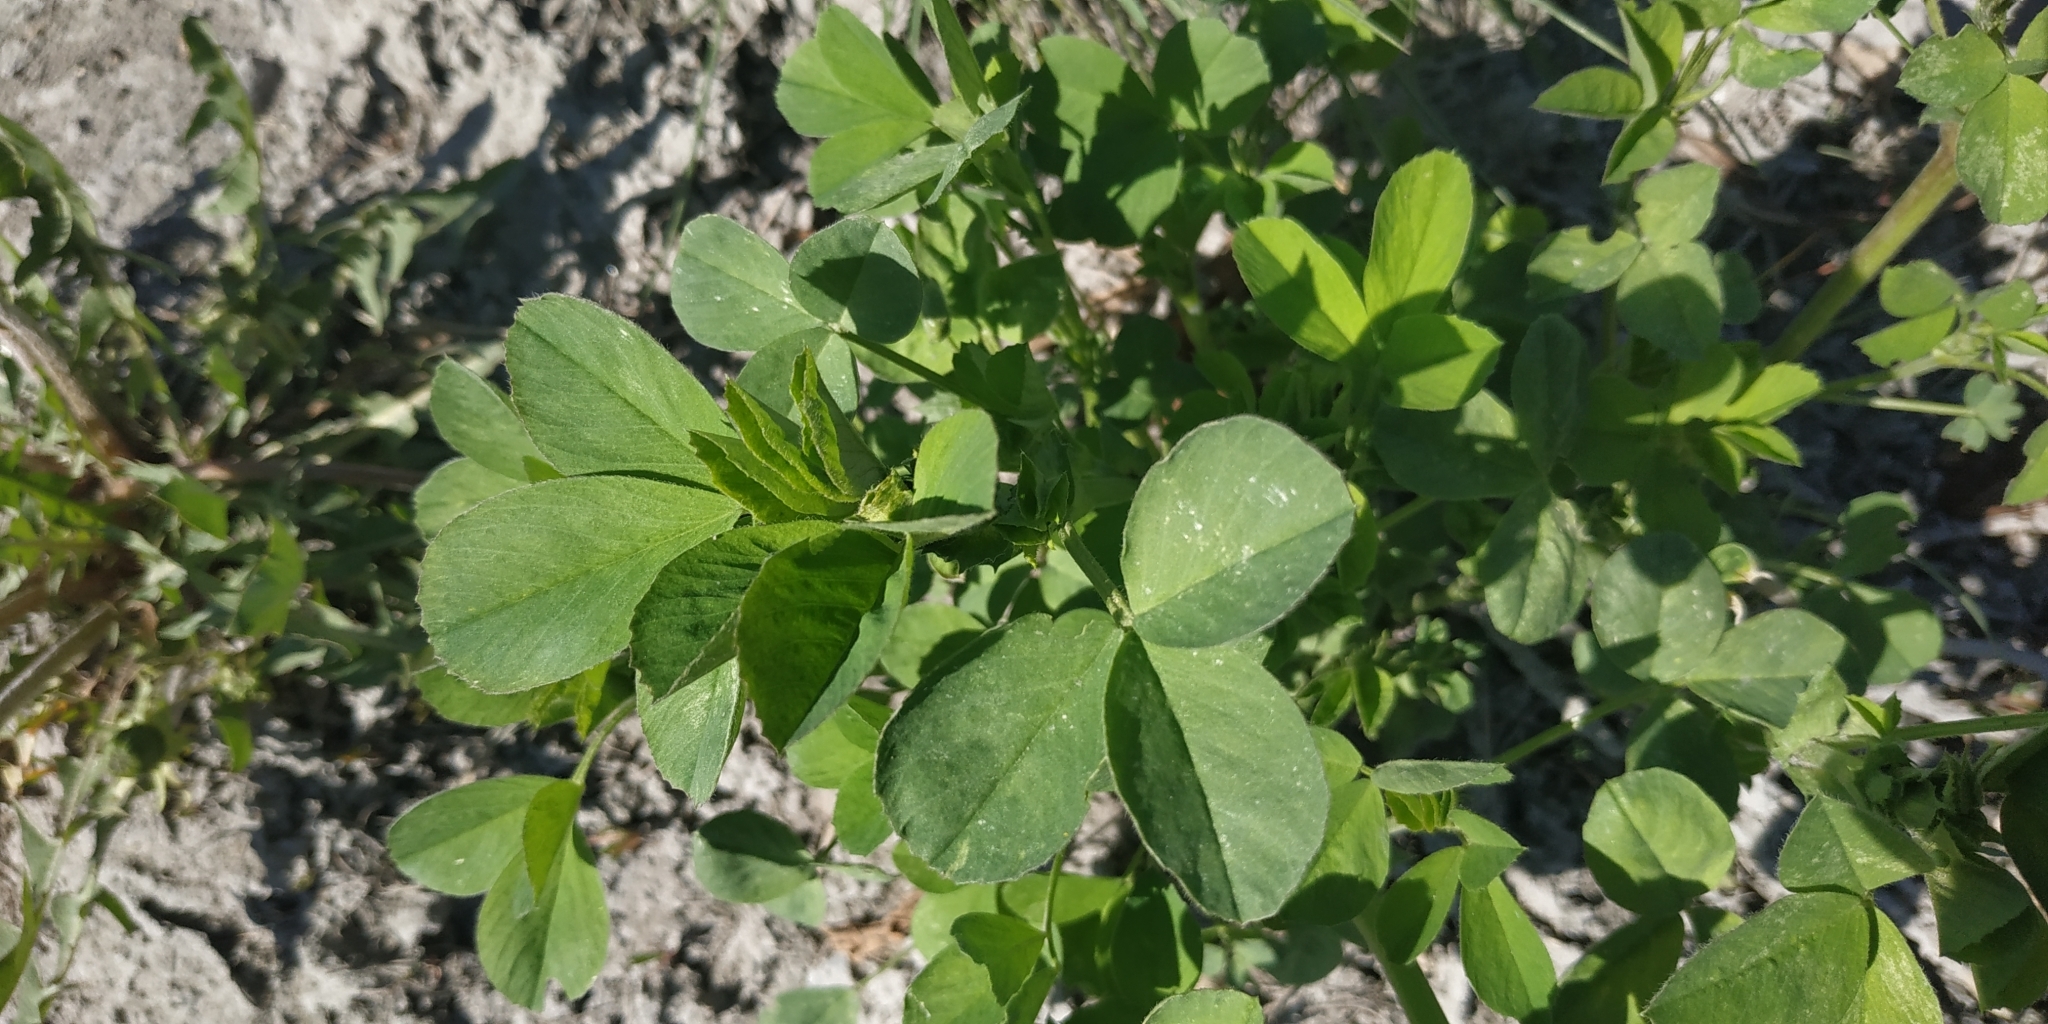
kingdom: Plantae
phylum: Tracheophyta
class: Magnoliopsida
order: Fabales
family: Fabaceae
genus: Medicago
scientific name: Medicago varia
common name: Sand lucerne
